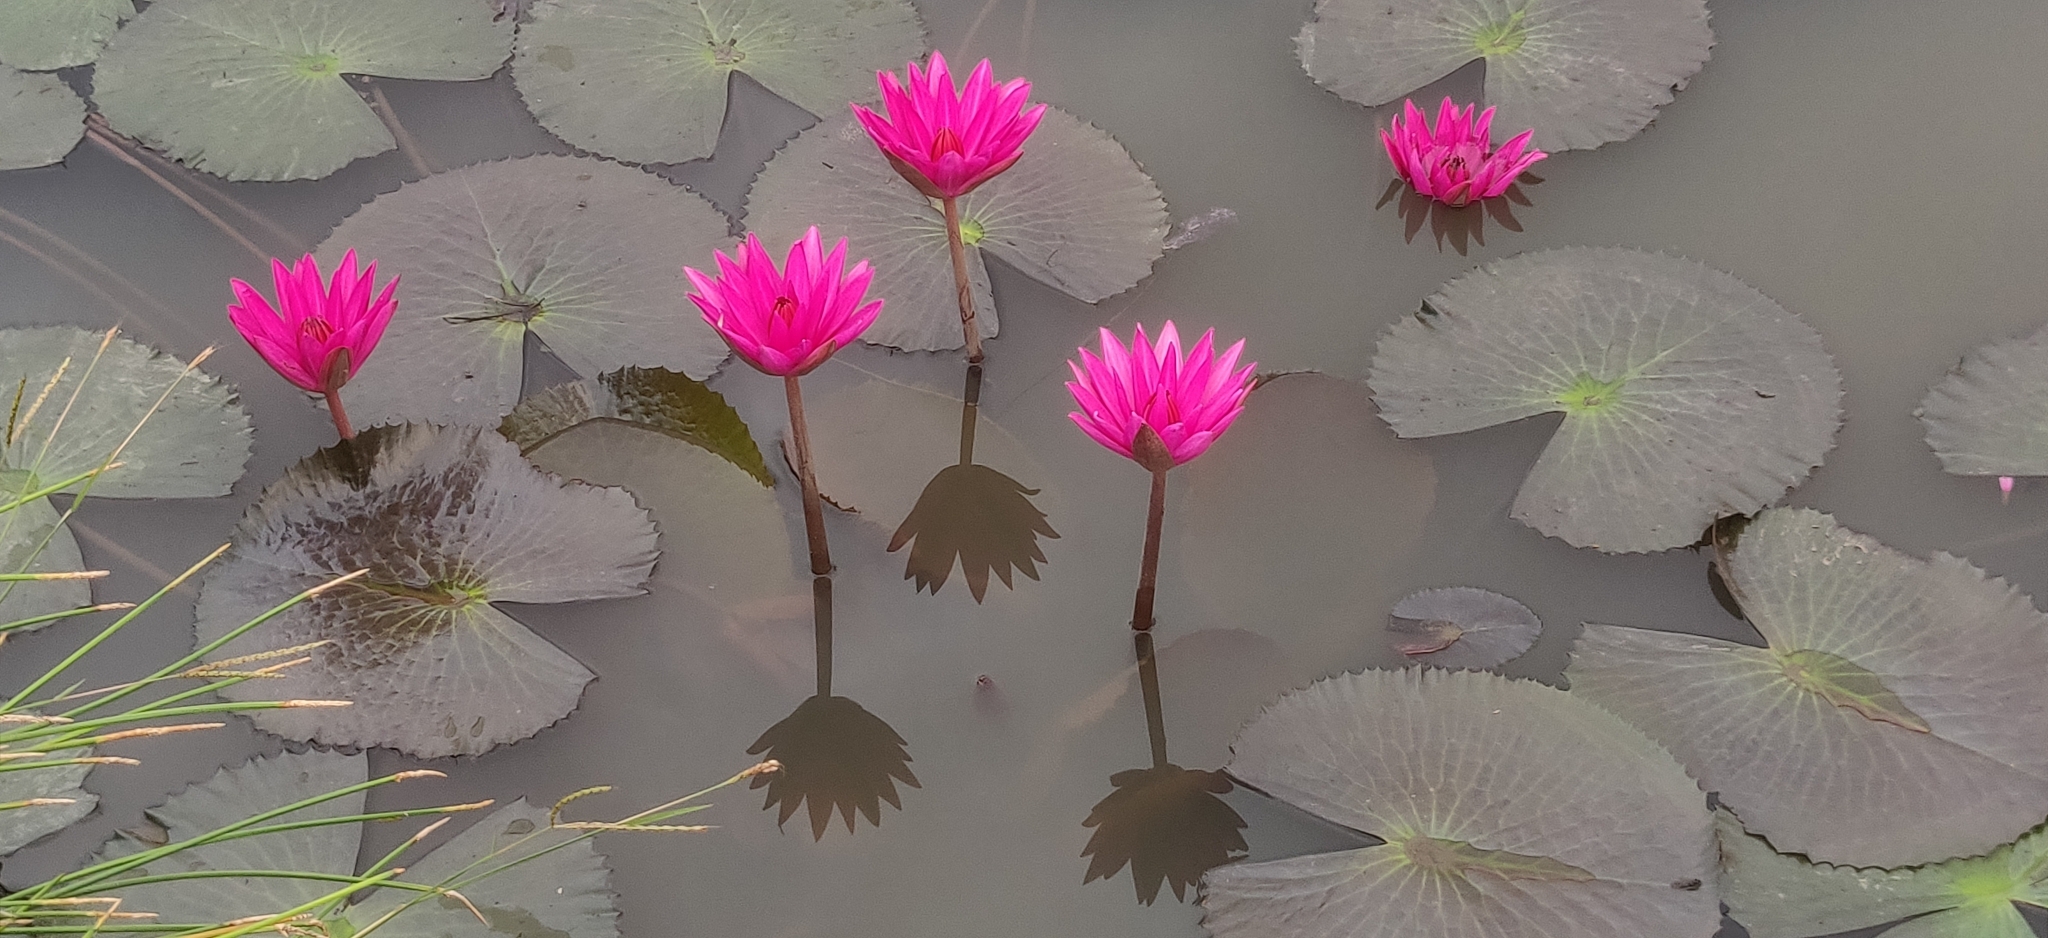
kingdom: Plantae
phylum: Tracheophyta
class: Magnoliopsida
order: Nymphaeales
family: Nymphaeaceae
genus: Nymphaea
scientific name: Nymphaea pubescens
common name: Hairy water lily
